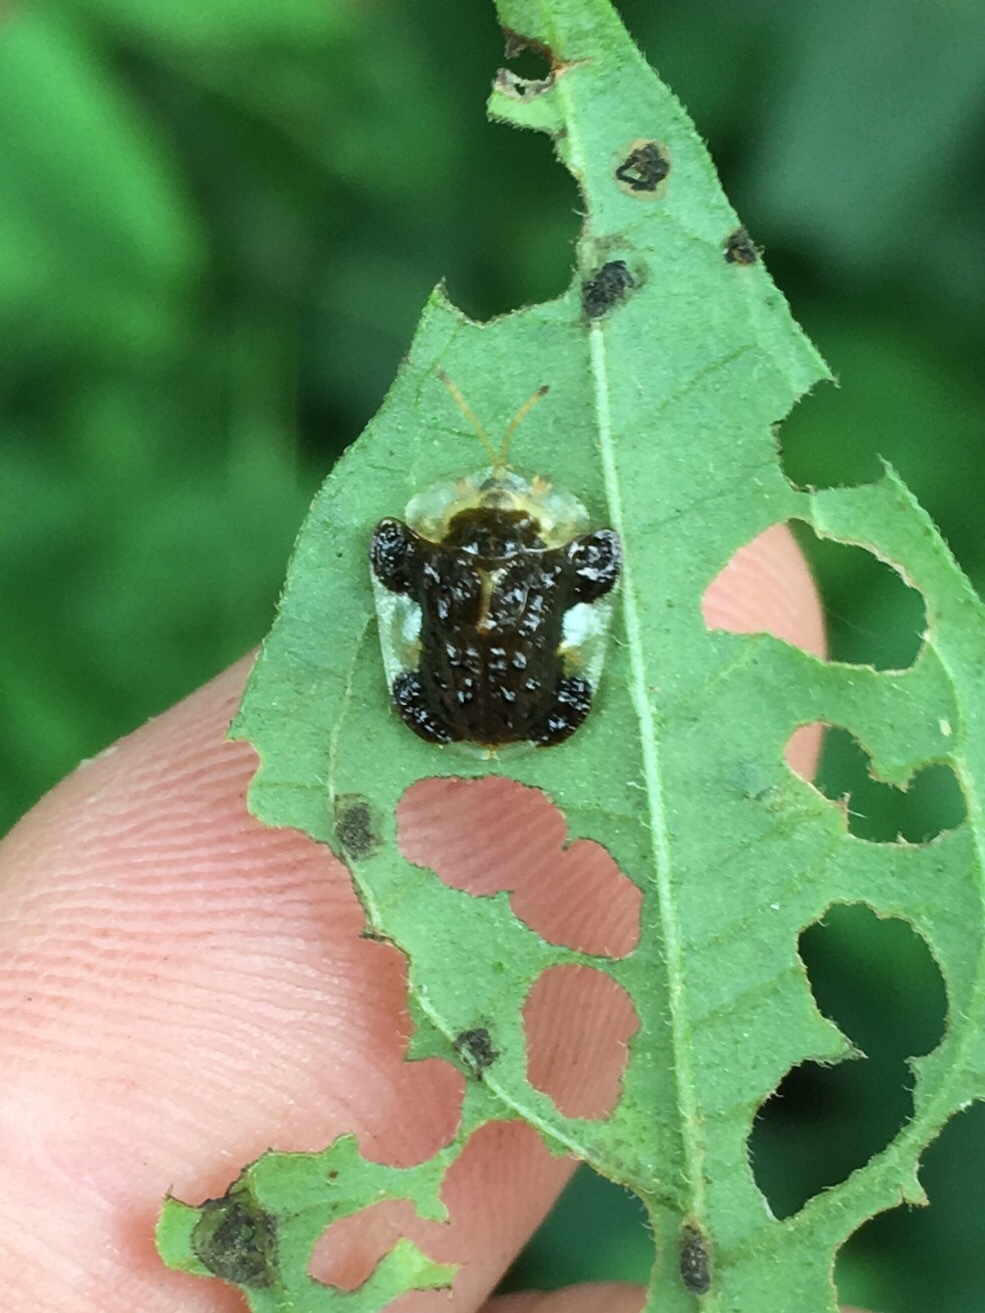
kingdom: Animalia
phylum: Arthropoda
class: Insecta
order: Coleoptera
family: Chrysomelidae
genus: Helocassis
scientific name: Helocassis clavata
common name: Clavate tortoise beetle
